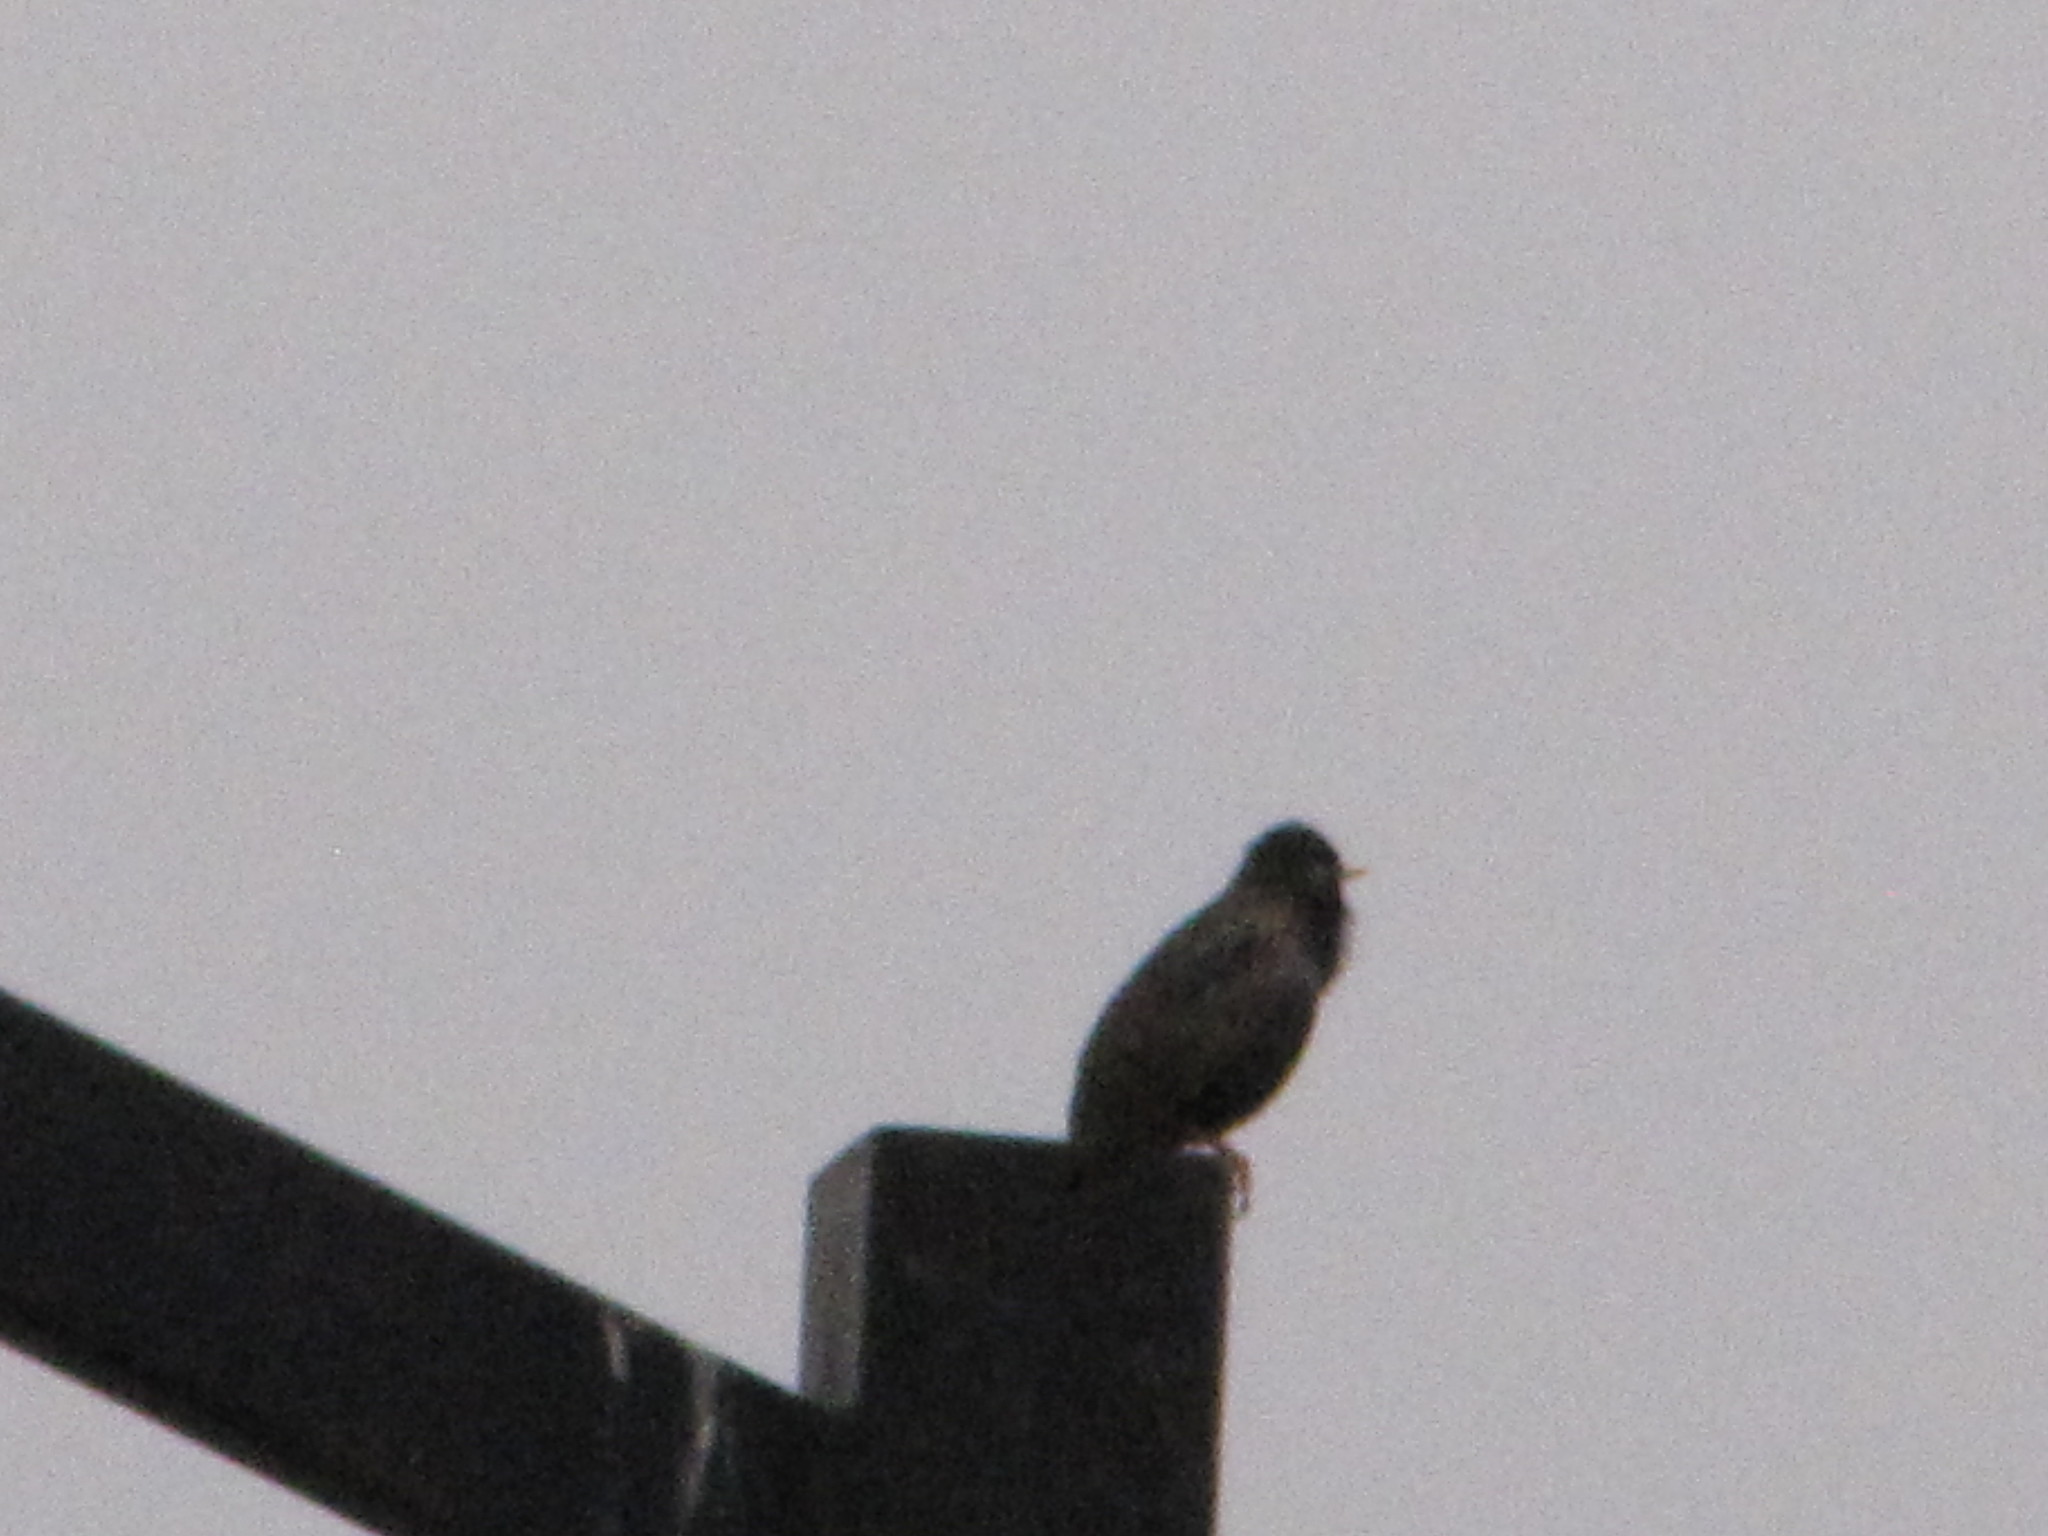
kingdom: Animalia
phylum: Chordata
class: Aves
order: Passeriformes
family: Sturnidae
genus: Sturnus
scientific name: Sturnus vulgaris
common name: Common starling
